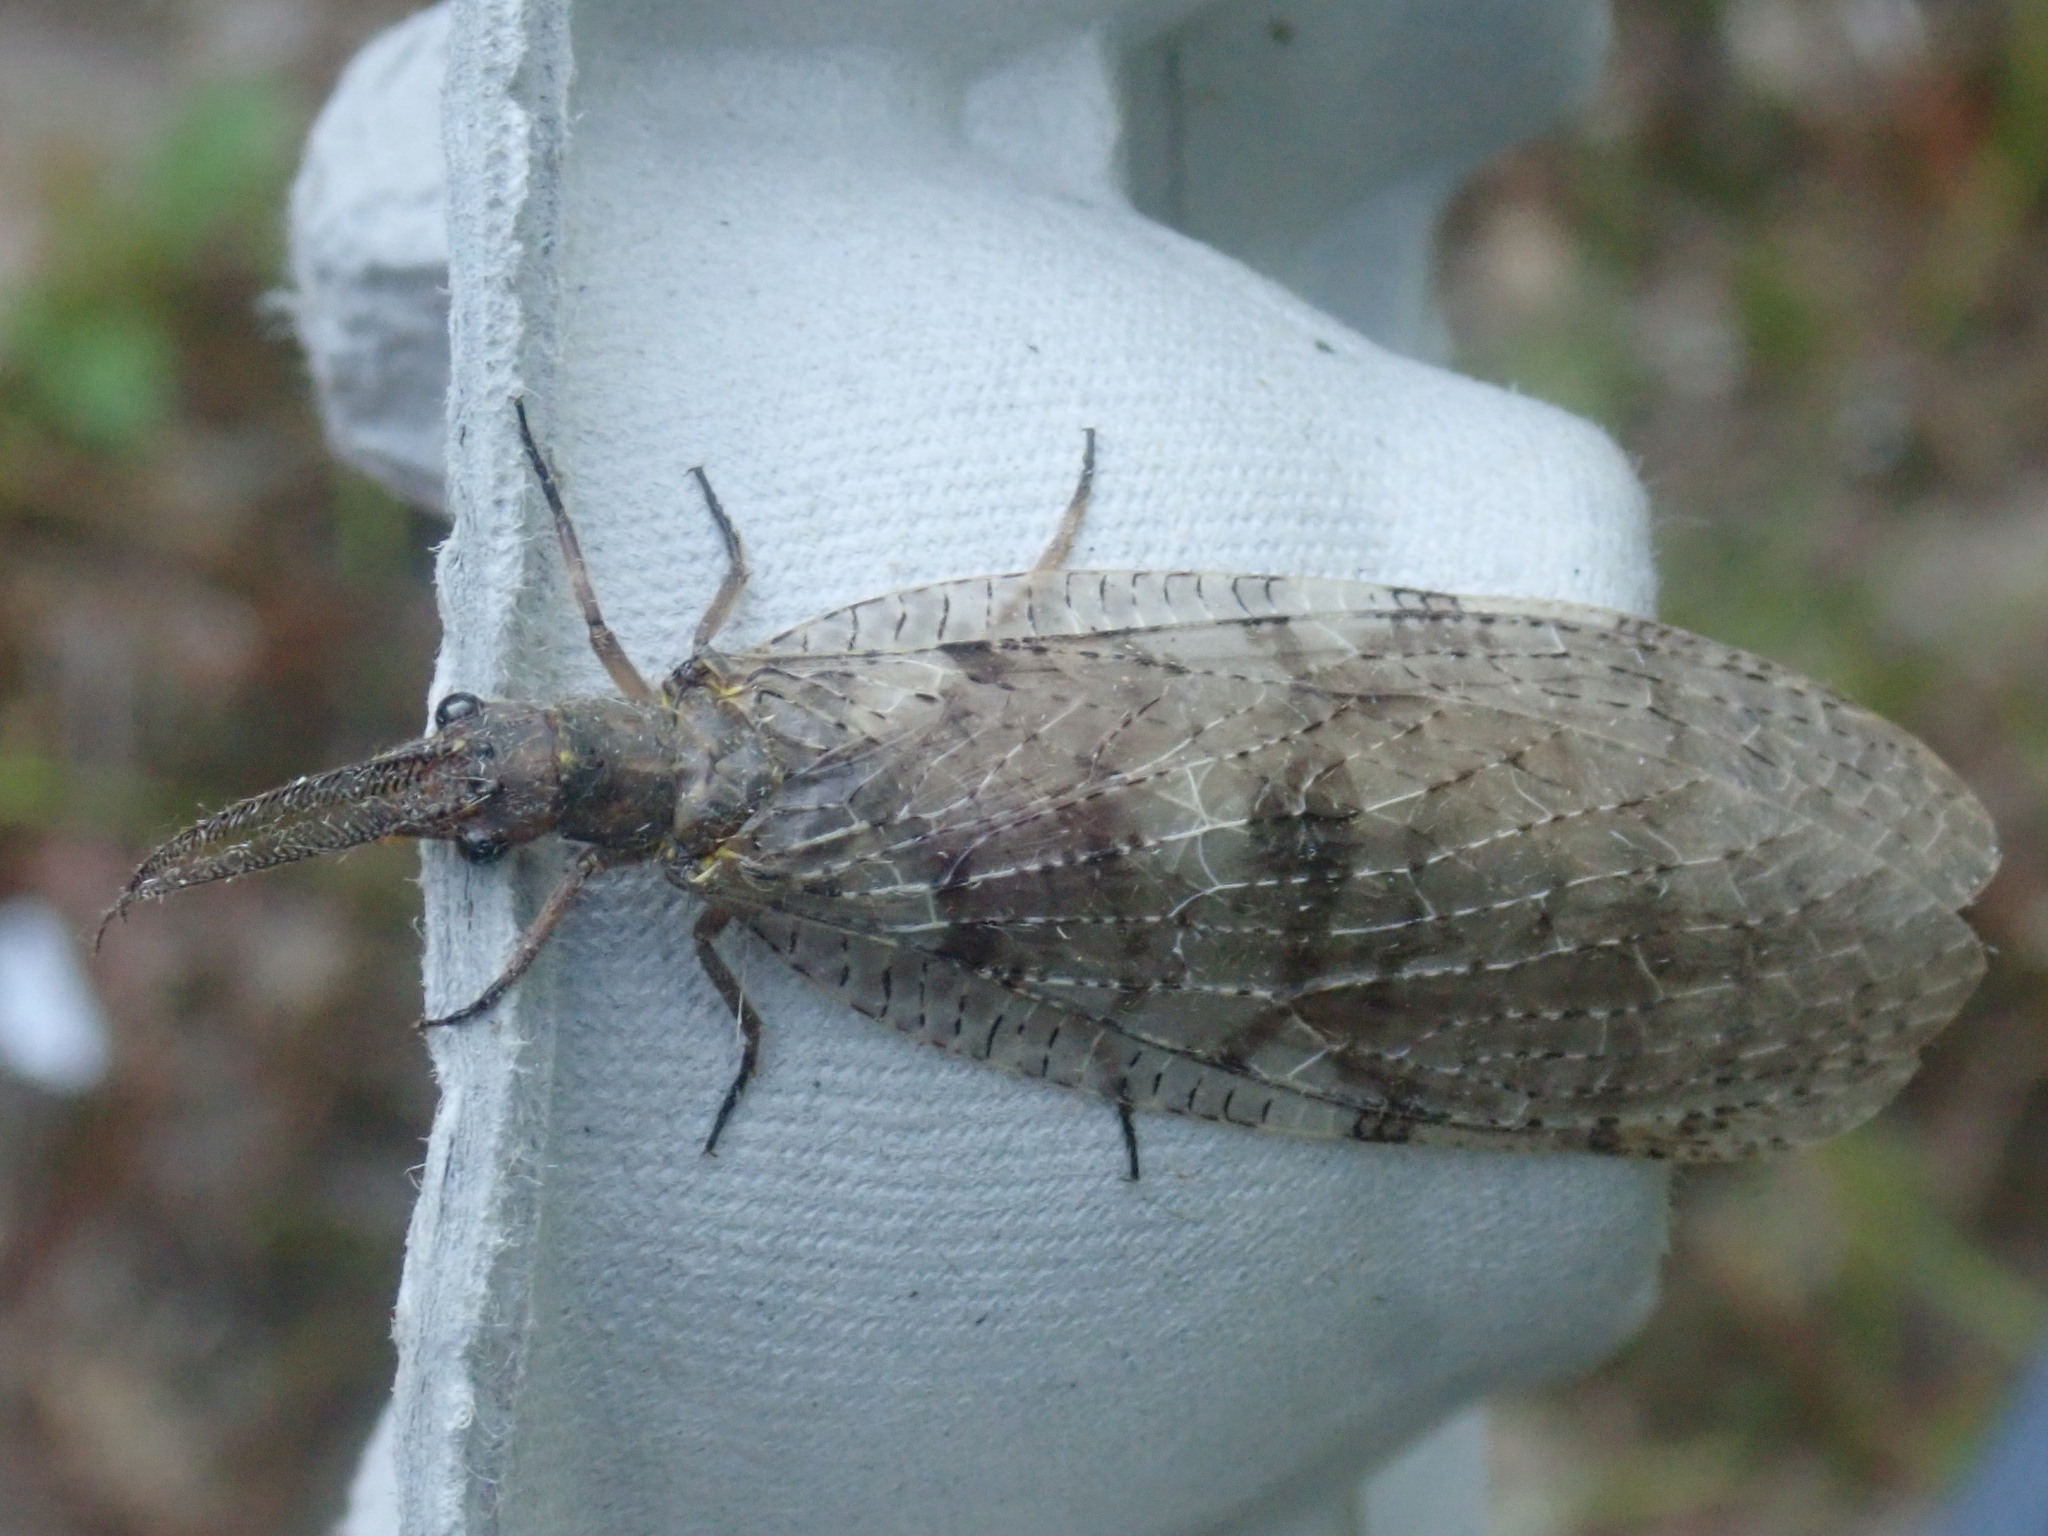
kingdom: Animalia
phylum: Arthropoda
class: Insecta
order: Megaloptera
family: Corydalidae
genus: Chauliodes
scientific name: Chauliodes pectinicornis
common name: Summer fishfly
